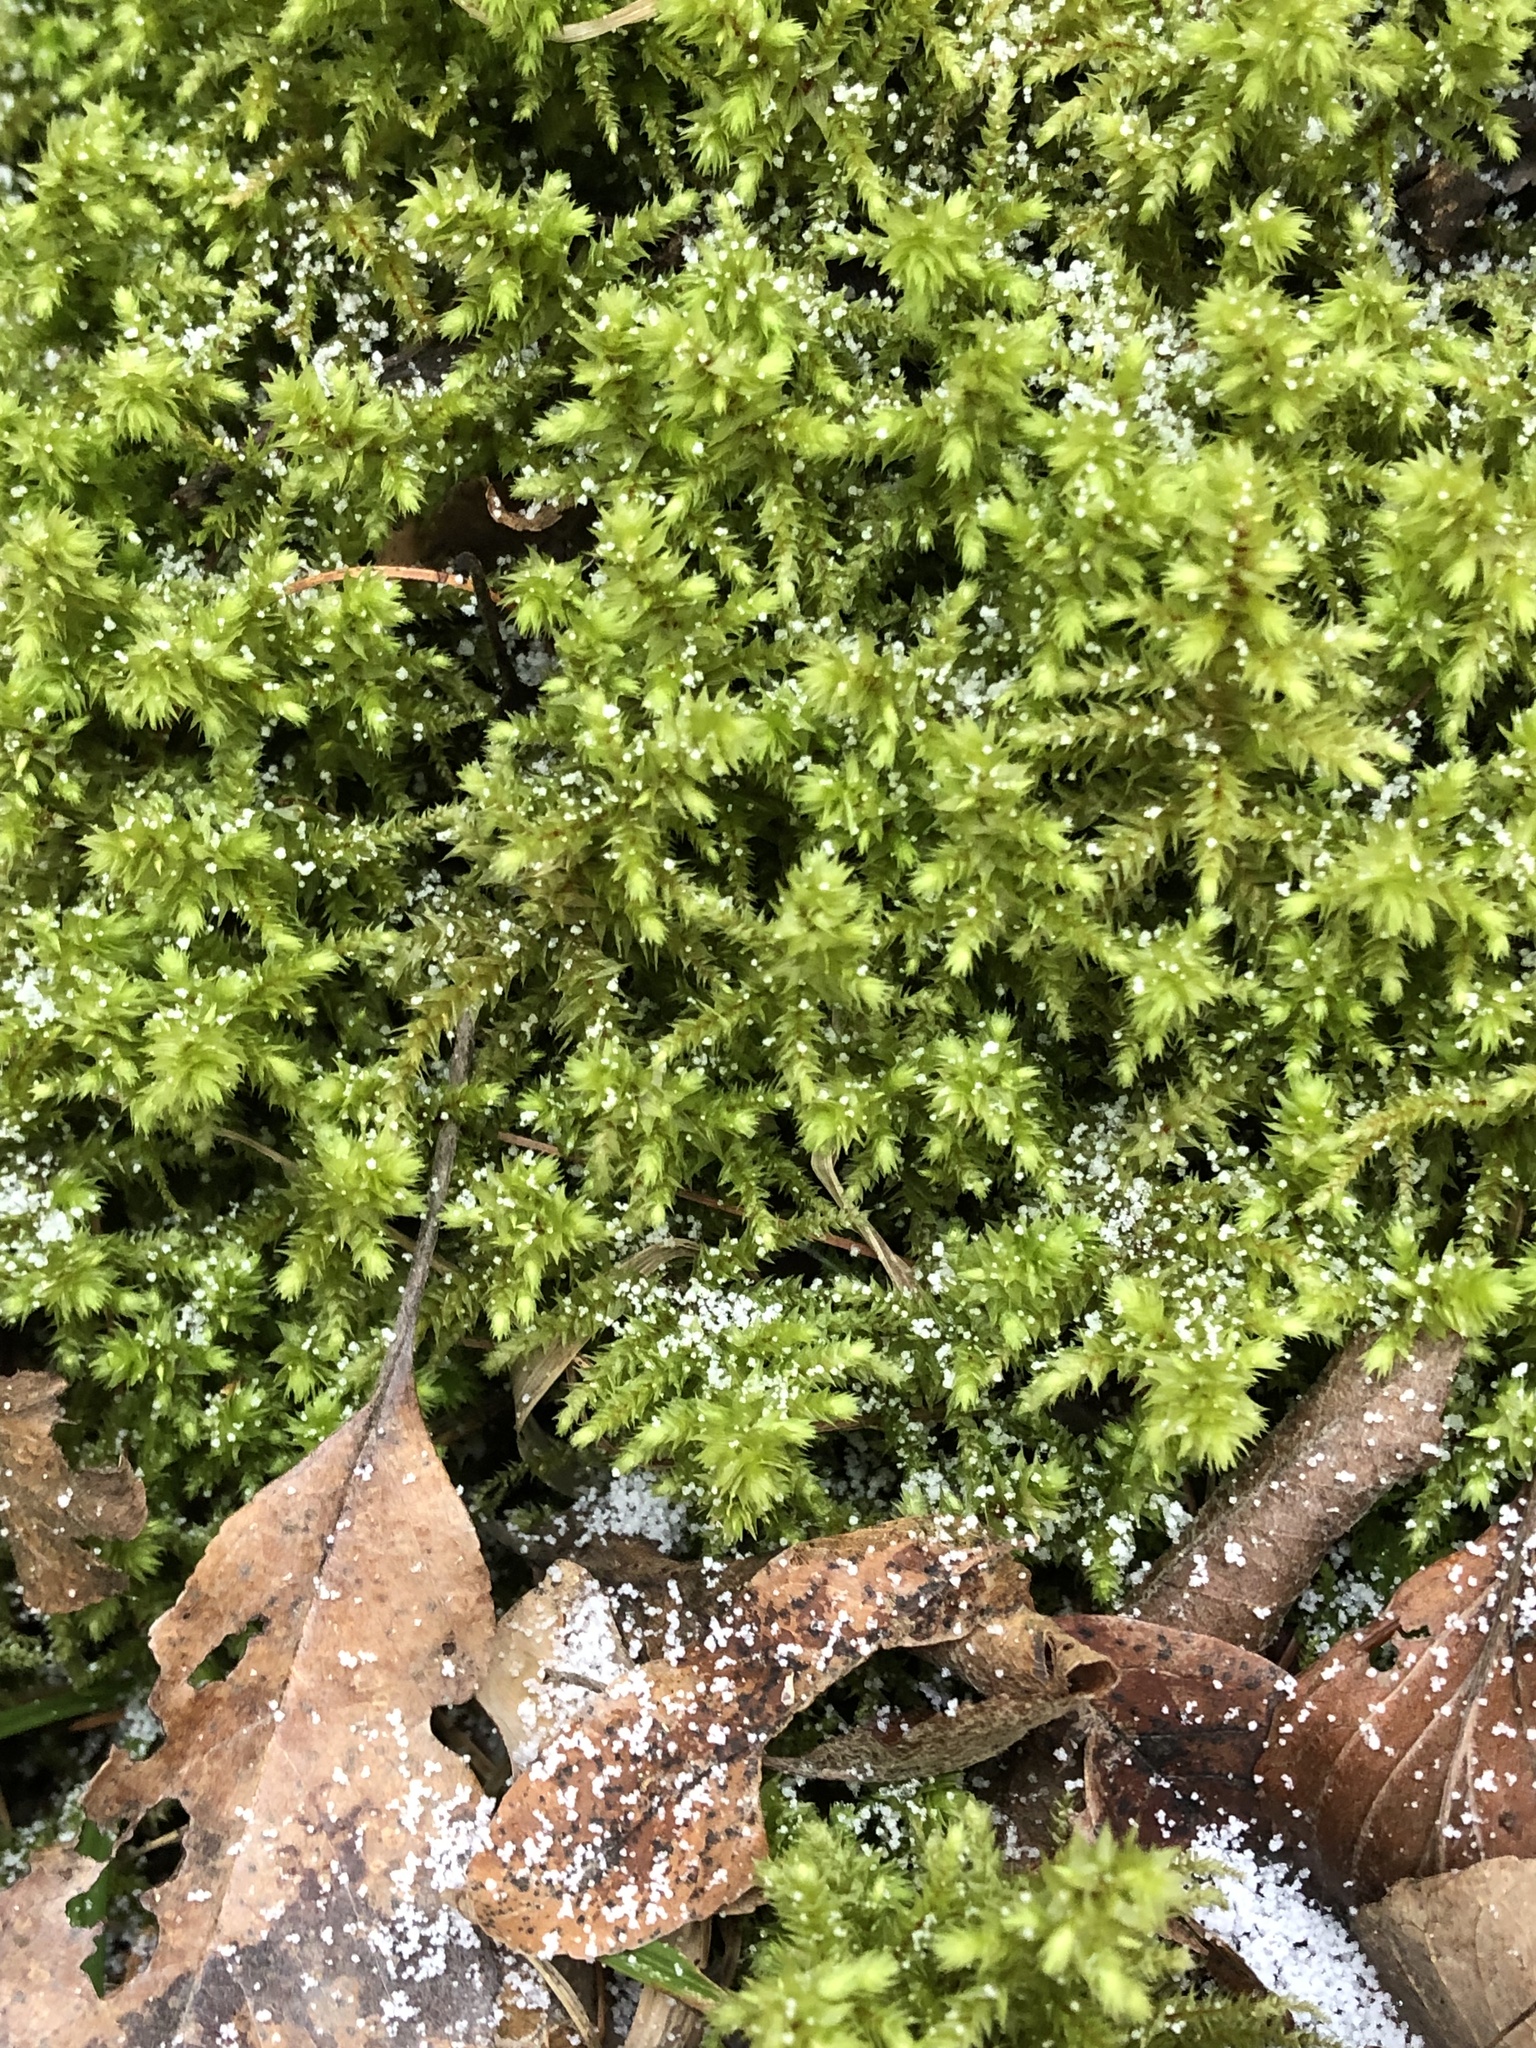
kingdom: Plantae
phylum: Bryophyta
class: Bryopsida
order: Hypnales
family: Hylocomiaceae
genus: Hylocomiadelphus
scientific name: Hylocomiadelphus triquetrus
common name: Rough goose neck moss
